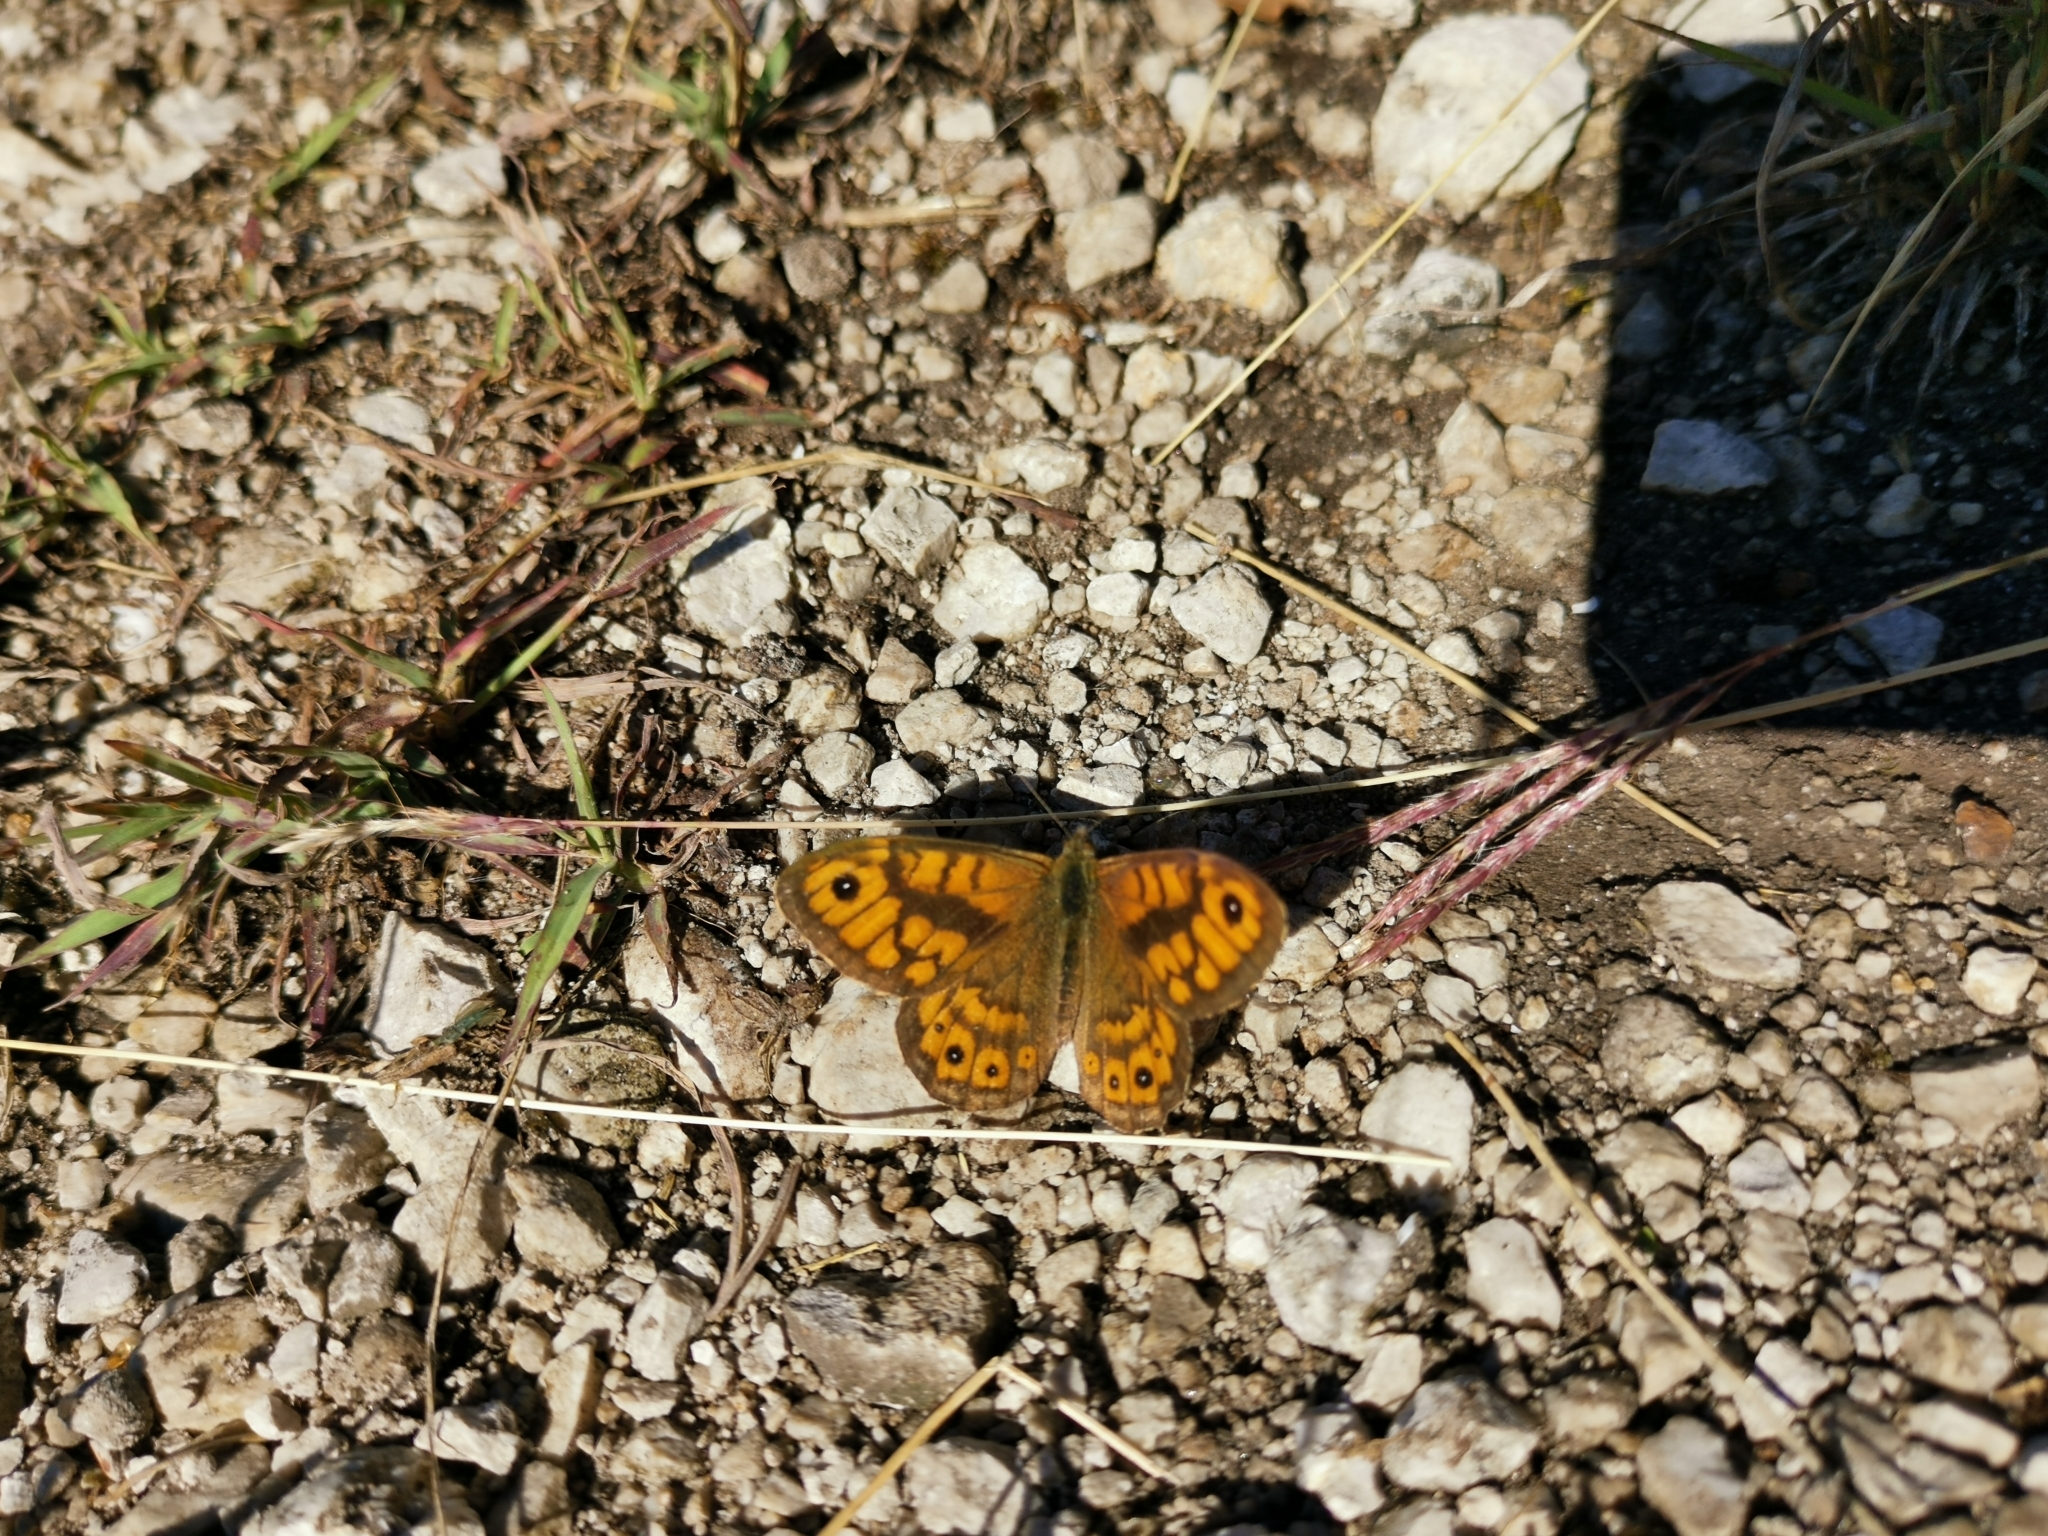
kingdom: Animalia
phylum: Arthropoda
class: Insecta
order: Lepidoptera
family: Nymphalidae
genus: Pararge
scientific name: Pararge Lasiommata megera
